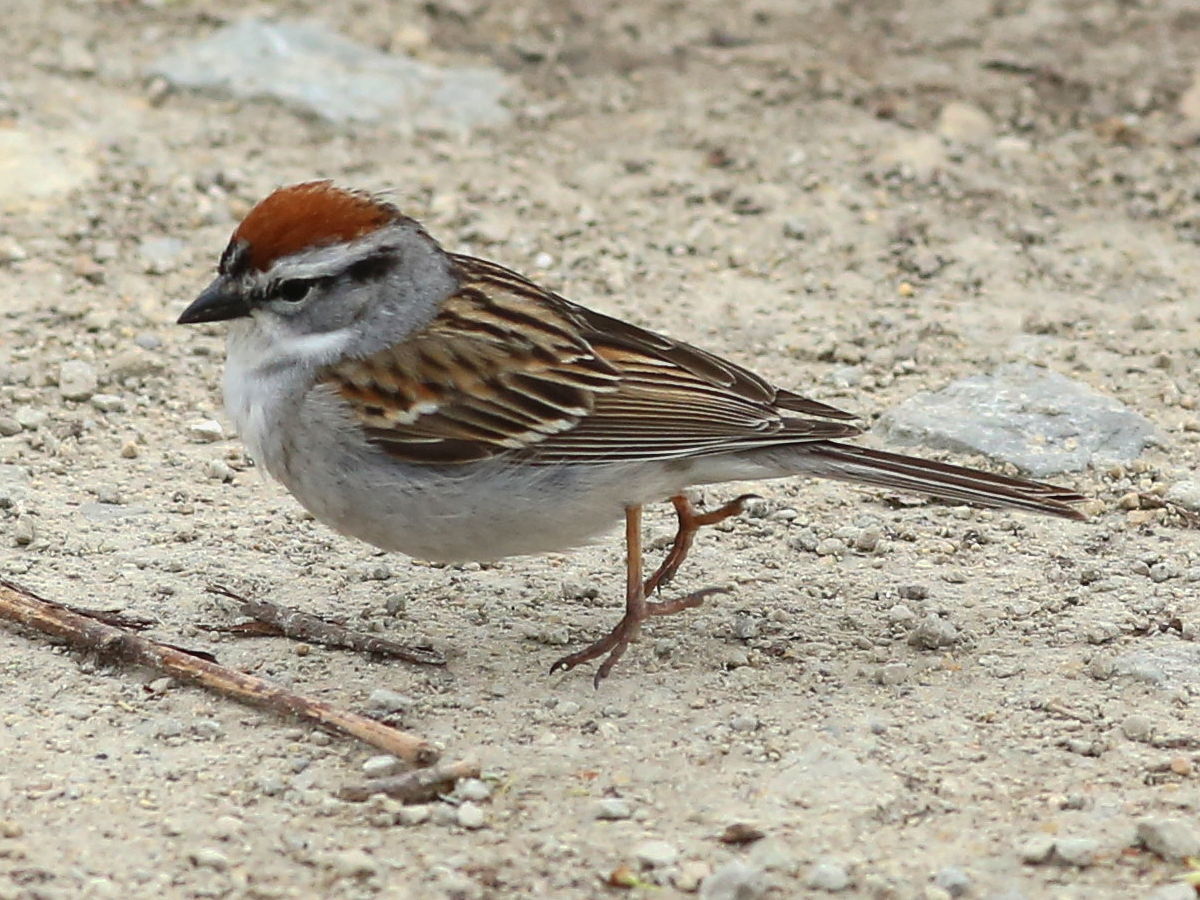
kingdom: Animalia
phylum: Chordata
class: Aves
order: Passeriformes
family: Passerellidae
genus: Spizella
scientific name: Spizella passerina
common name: Chipping sparrow
